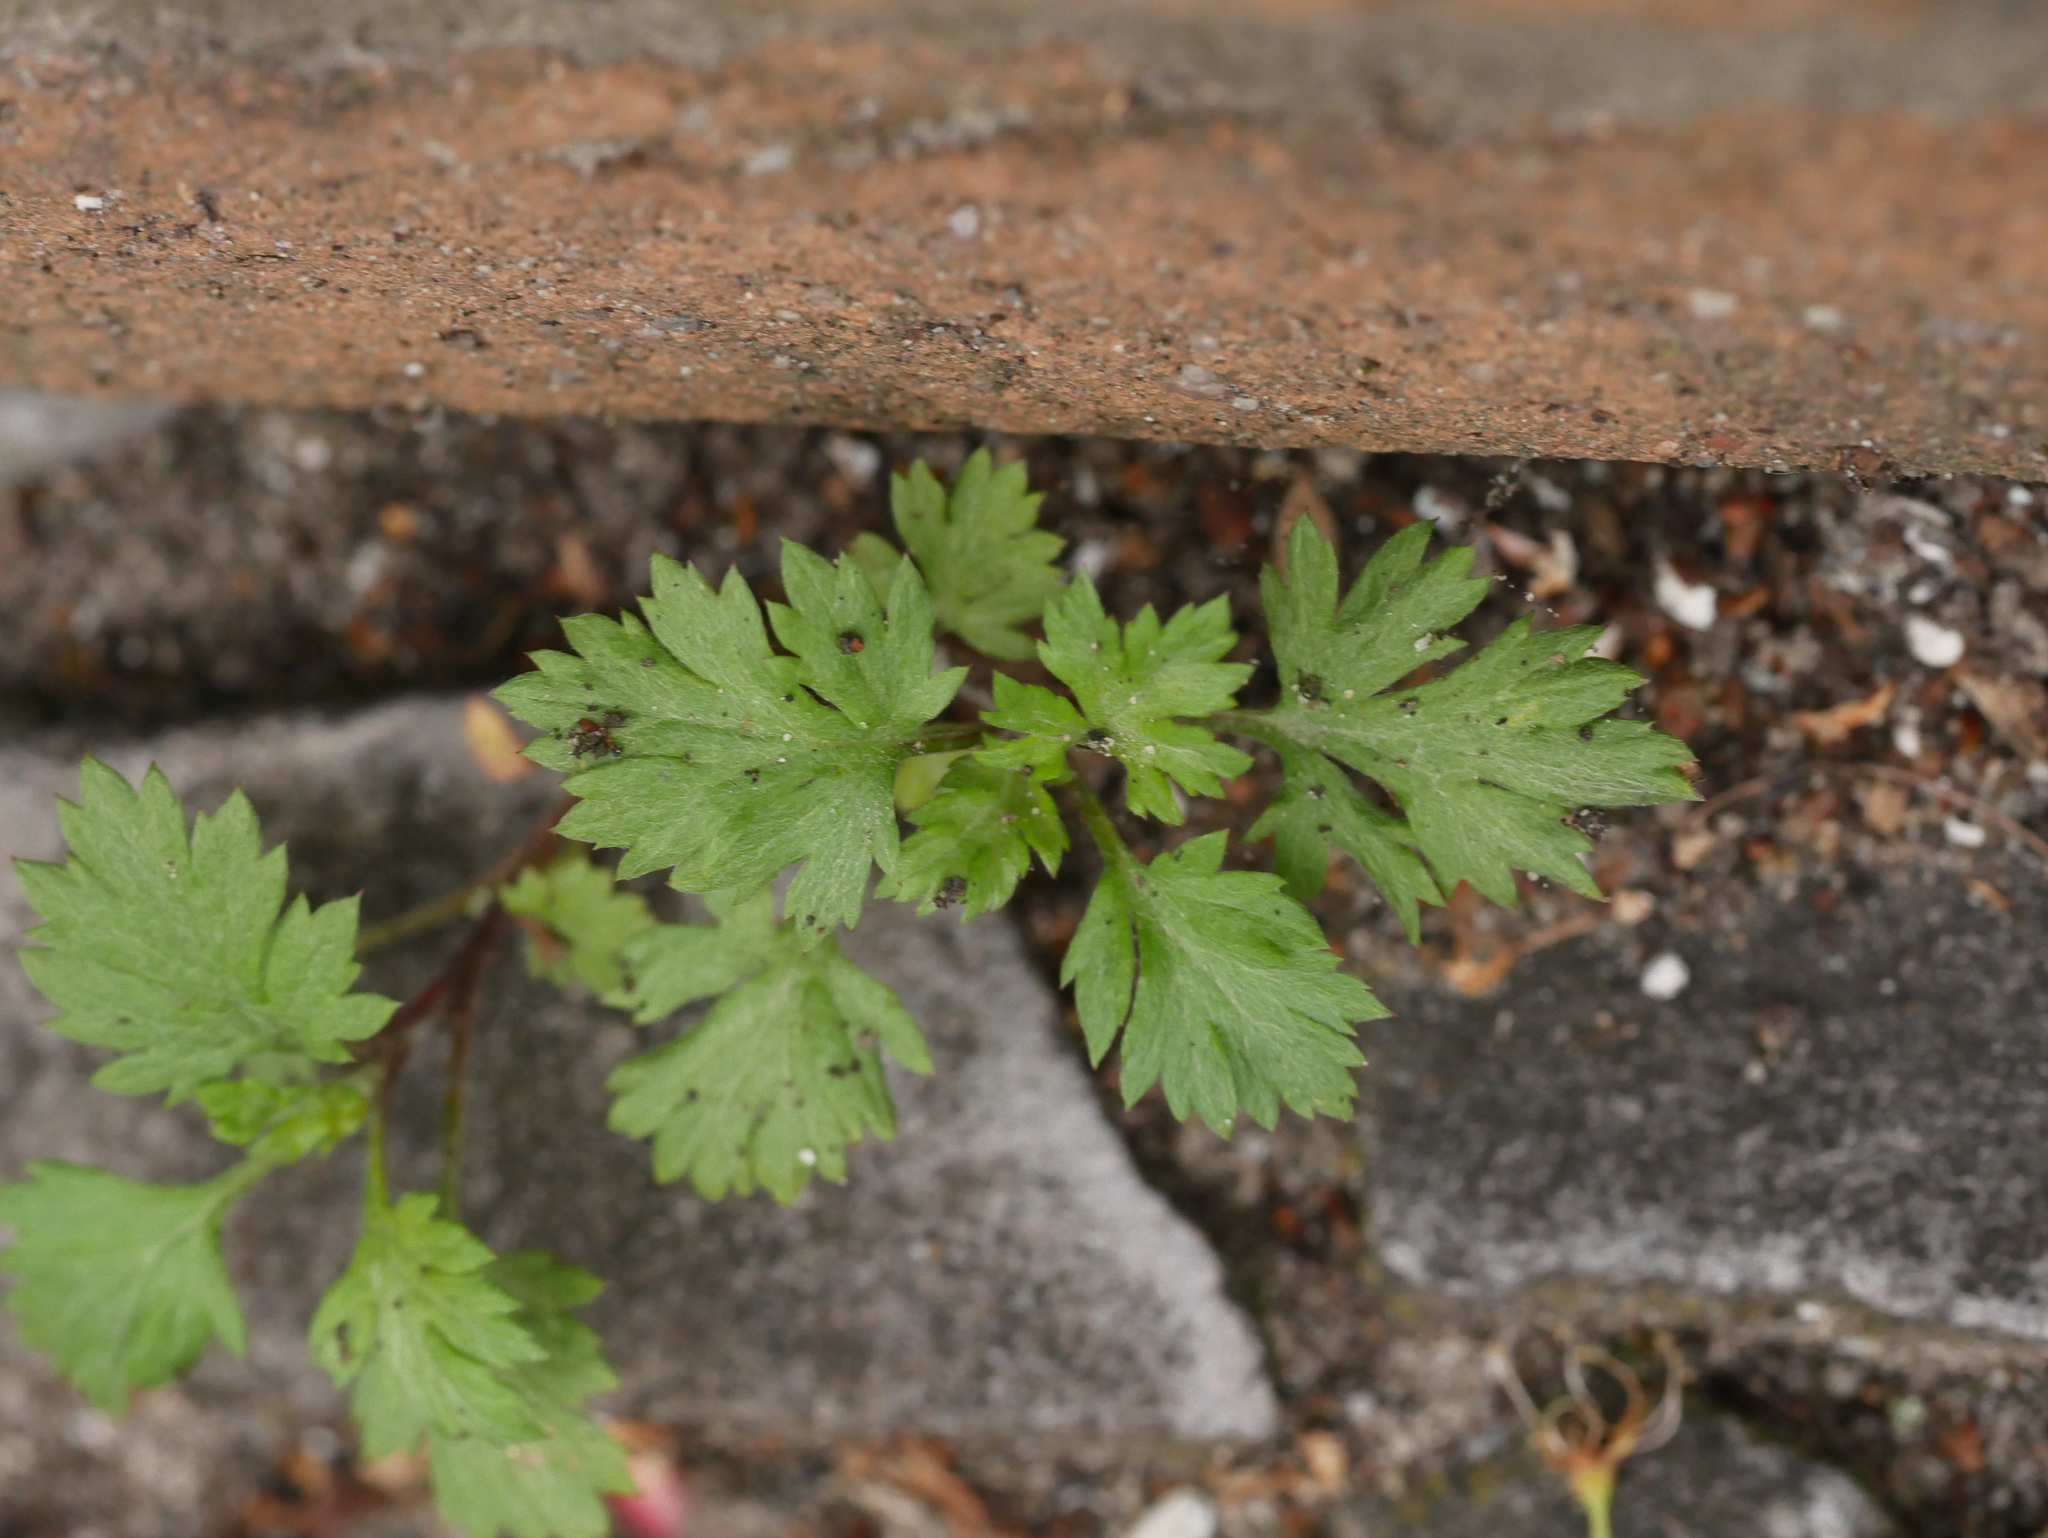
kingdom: Plantae
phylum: Tracheophyta
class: Magnoliopsida
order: Asterales
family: Asteraceae
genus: Artemisia
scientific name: Artemisia vulgaris
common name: Mugwort
